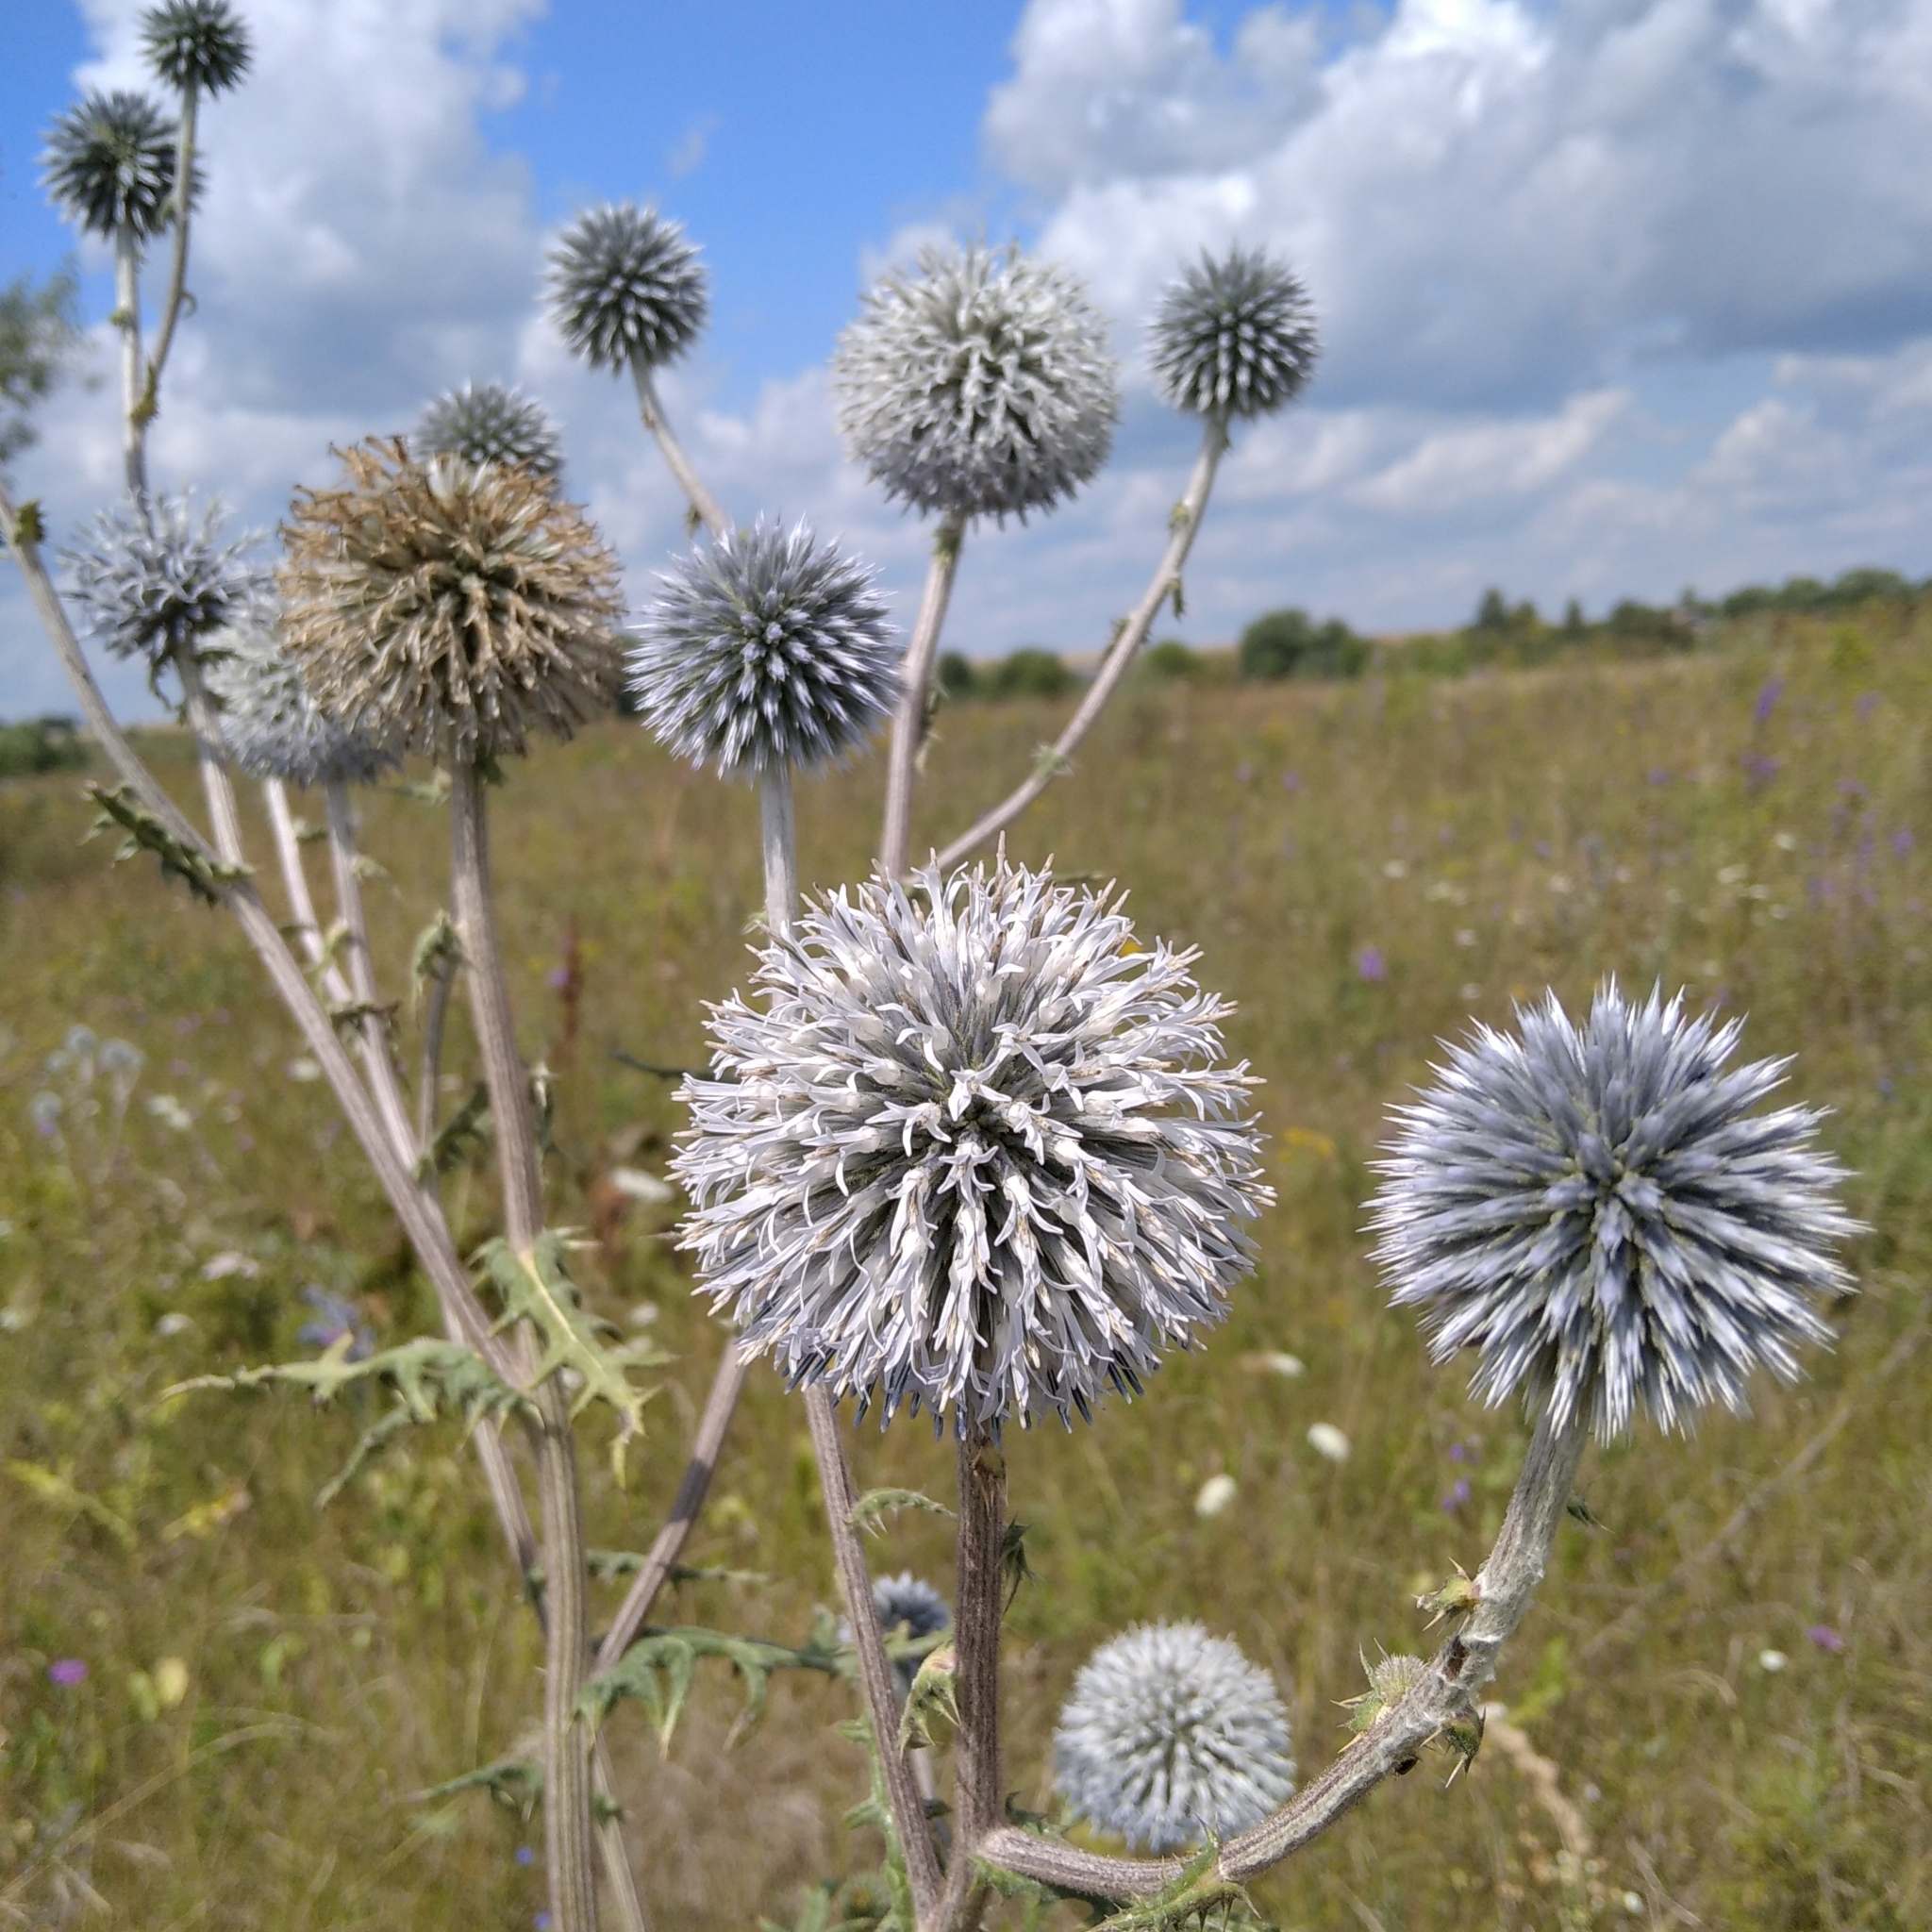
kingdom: Plantae
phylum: Tracheophyta
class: Magnoliopsida
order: Asterales
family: Asteraceae
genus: Echinops
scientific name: Echinops sphaerocephalus
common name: Glandular globe-thistle
